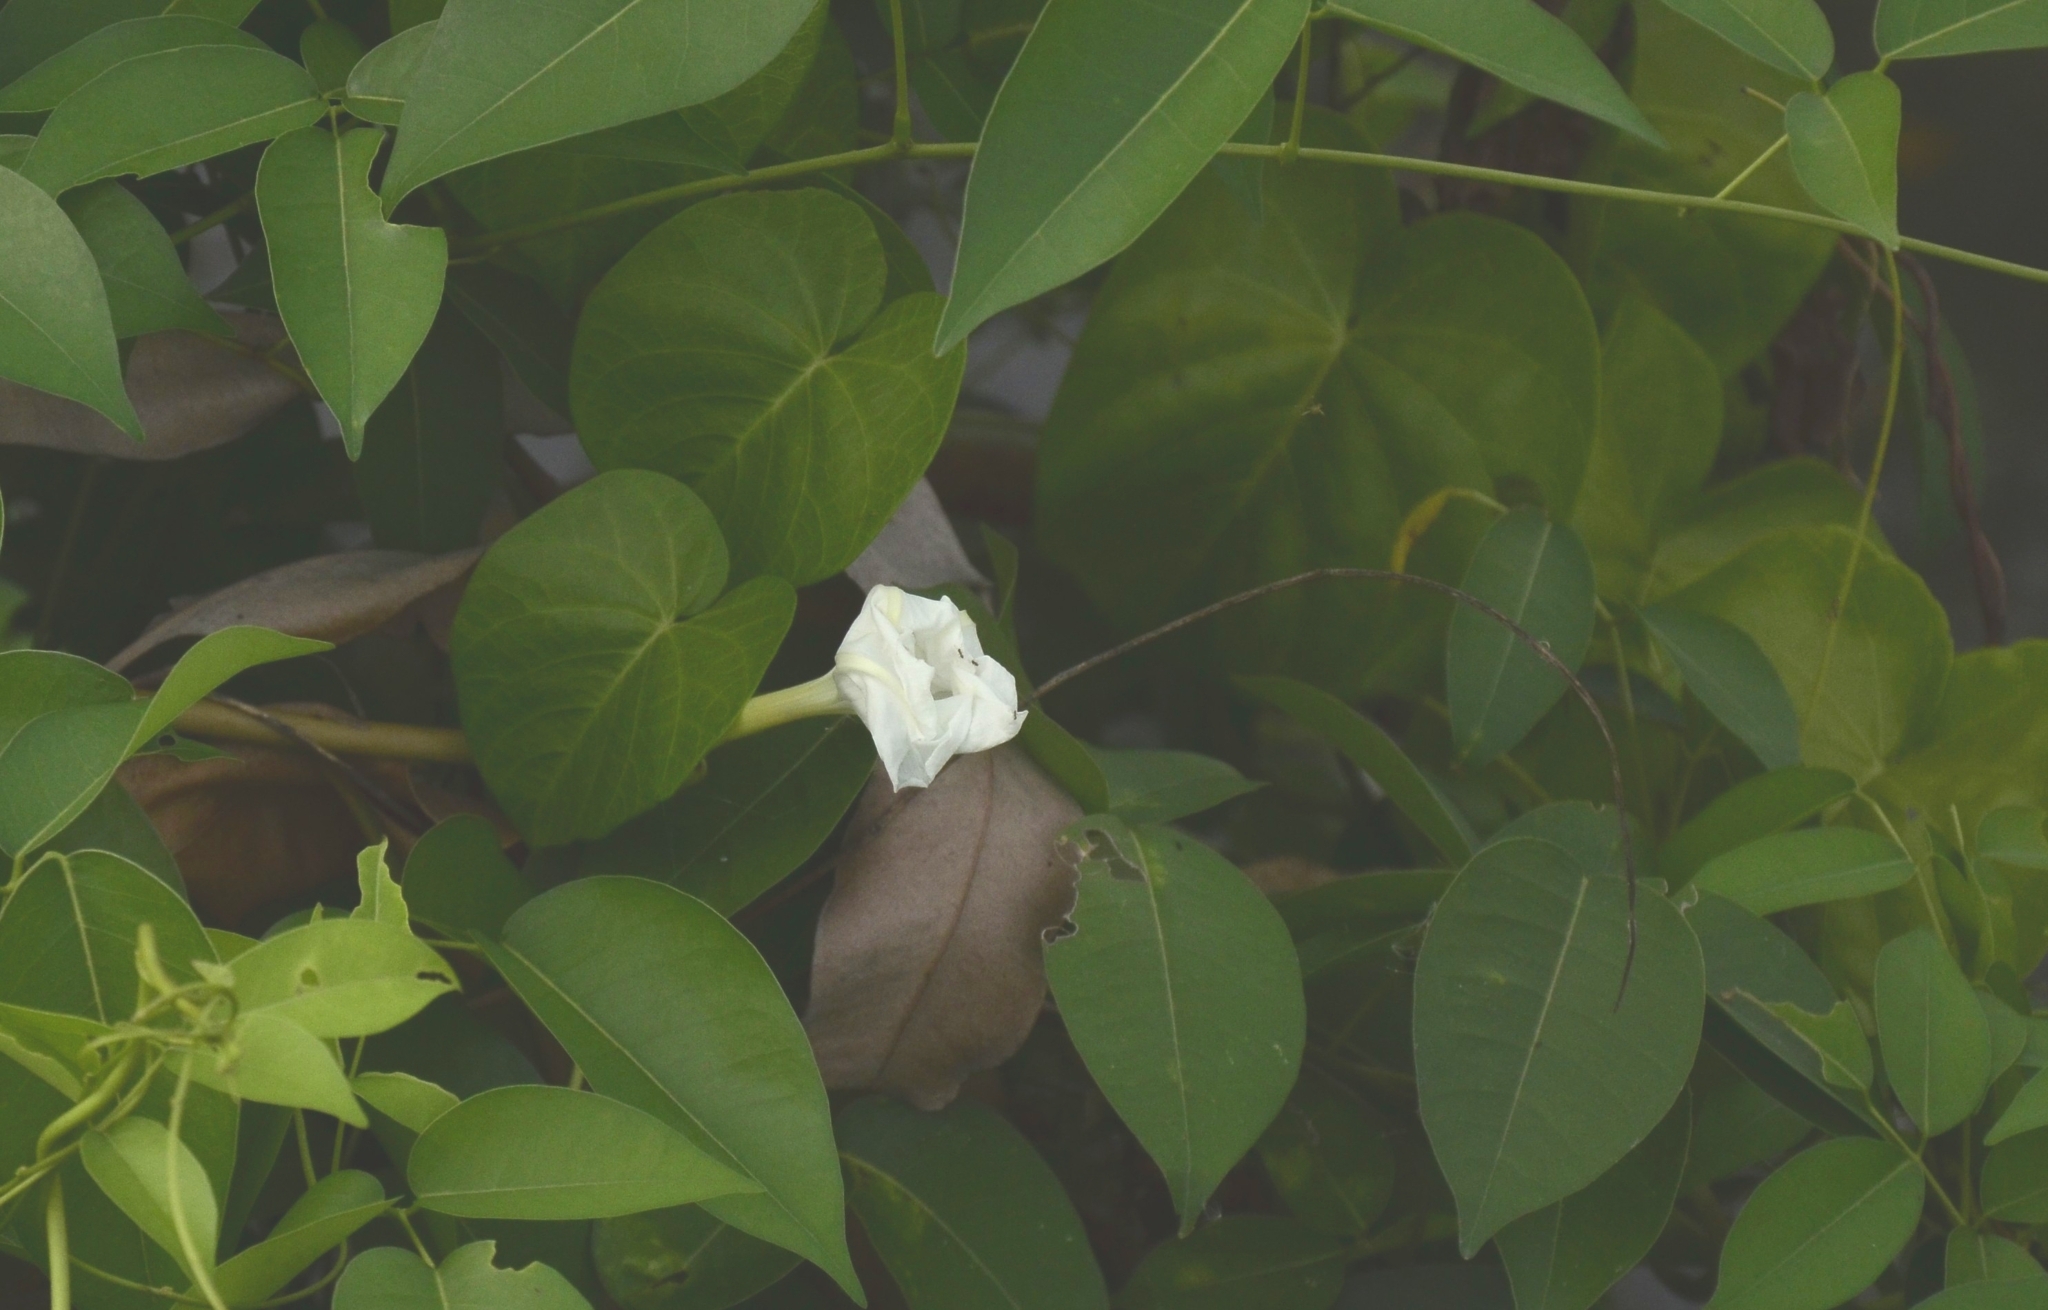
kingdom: Plantae
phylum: Tracheophyta
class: Magnoliopsida
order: Solanales
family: Convolvulaceae
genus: Ipomoea
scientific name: Ipomoea violacea
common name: Beach moonflower
